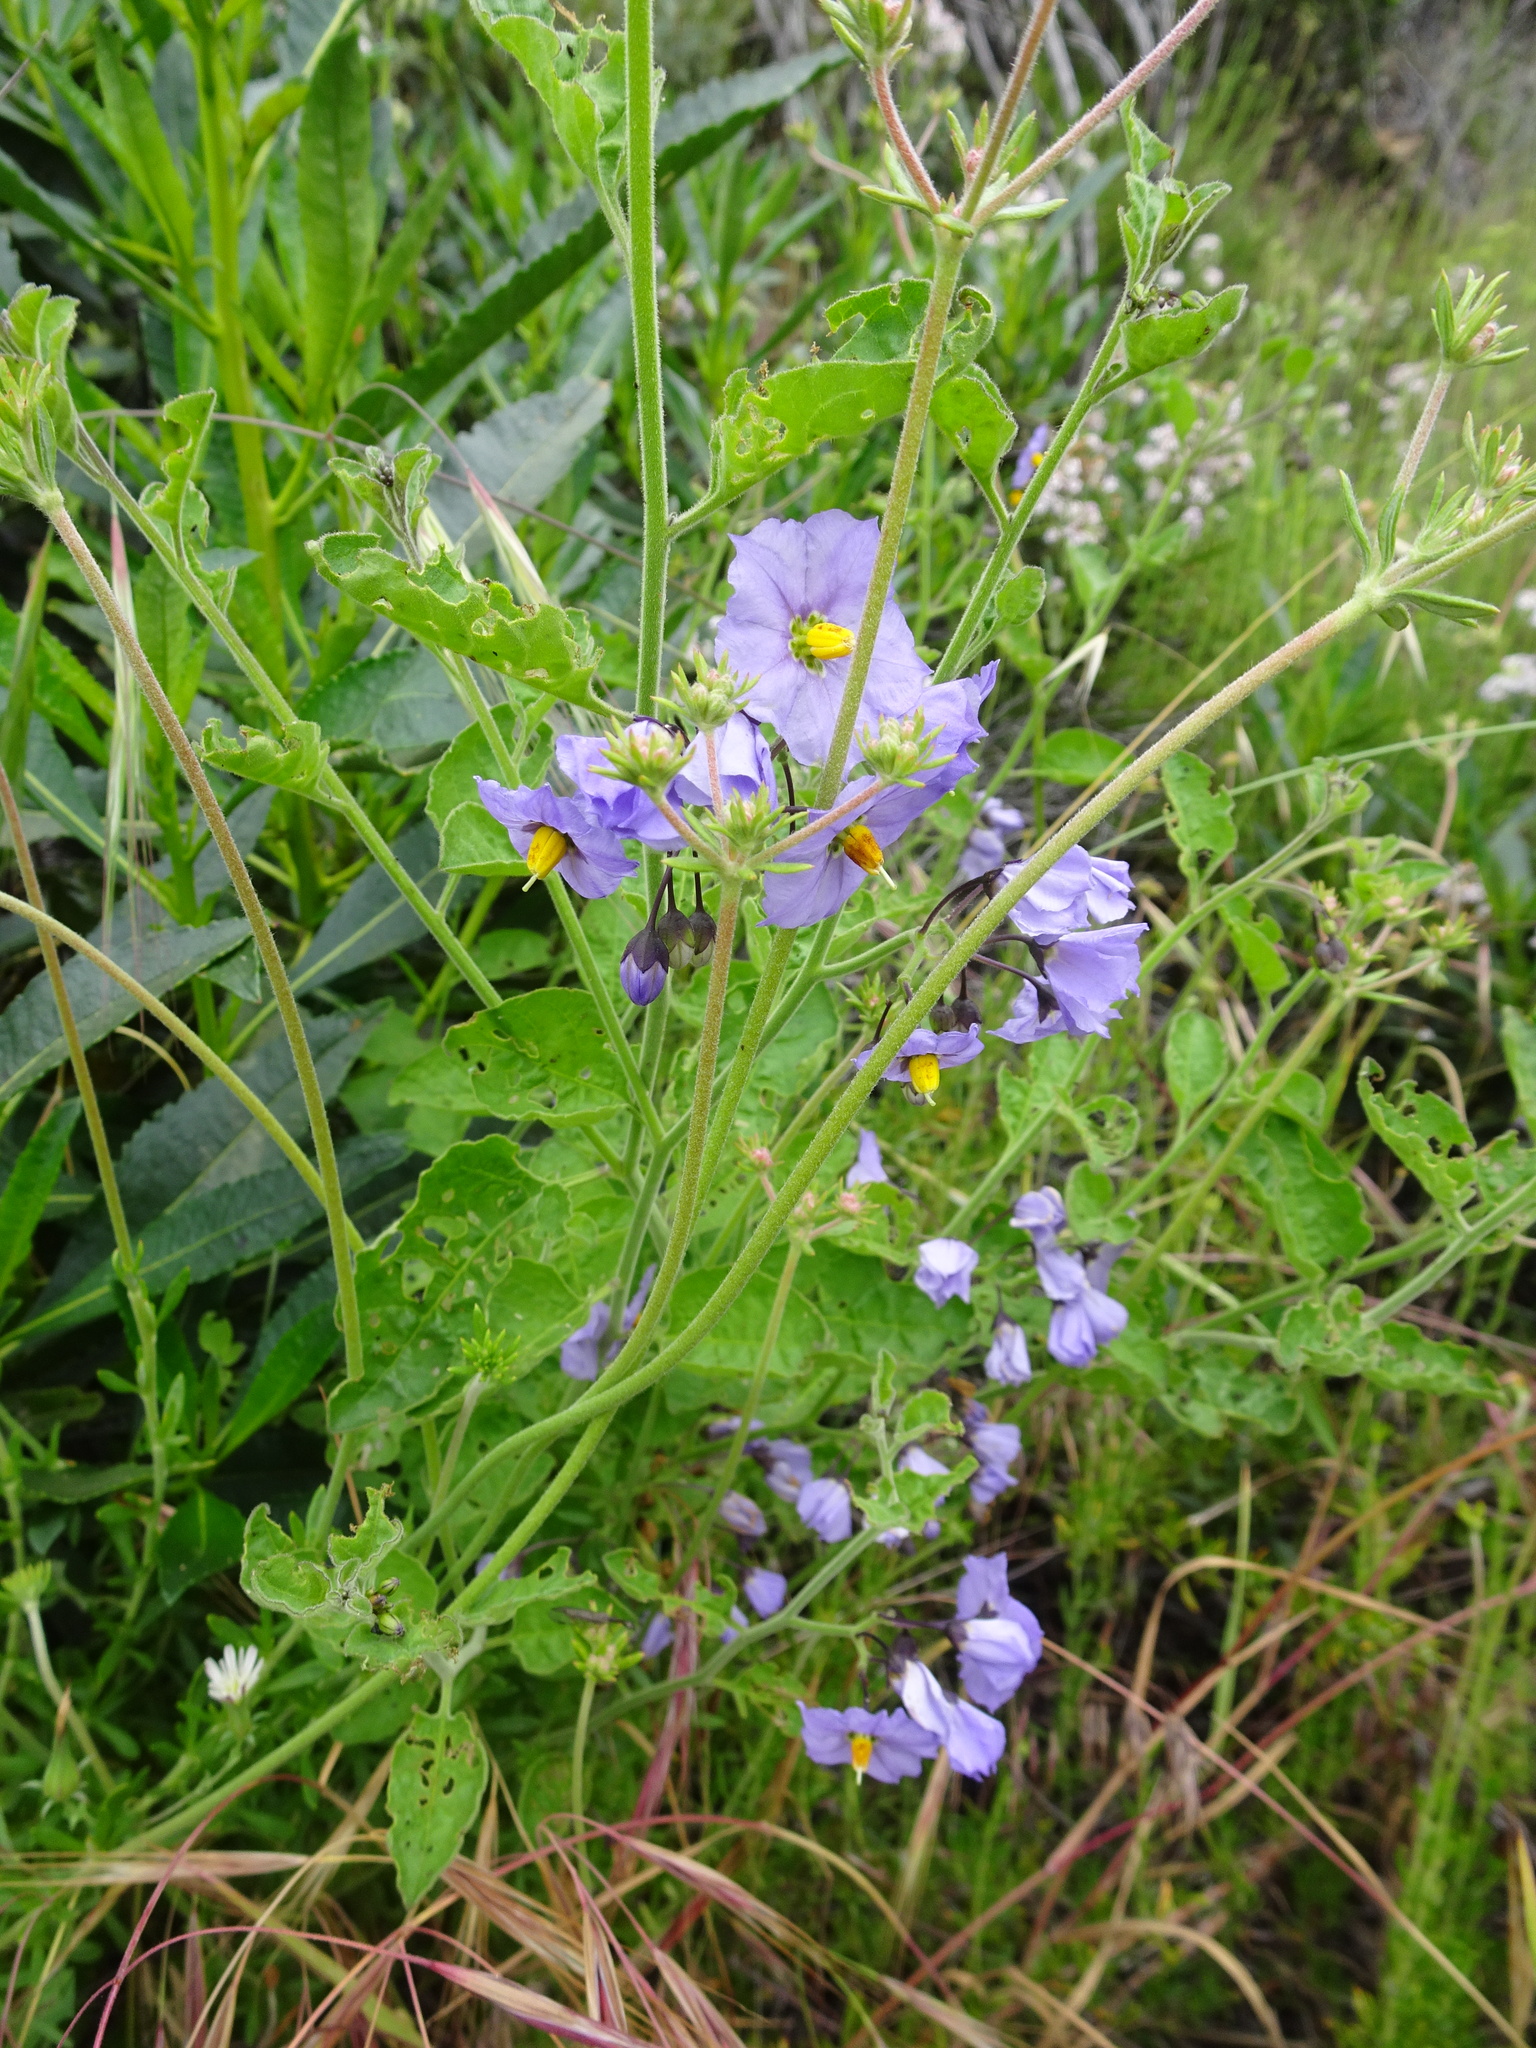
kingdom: Plantae
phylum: Tracheophyta
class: Magnoliopsida
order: Solanales
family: Solanaceae
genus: Solanum
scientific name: Solanum umbelliferum
